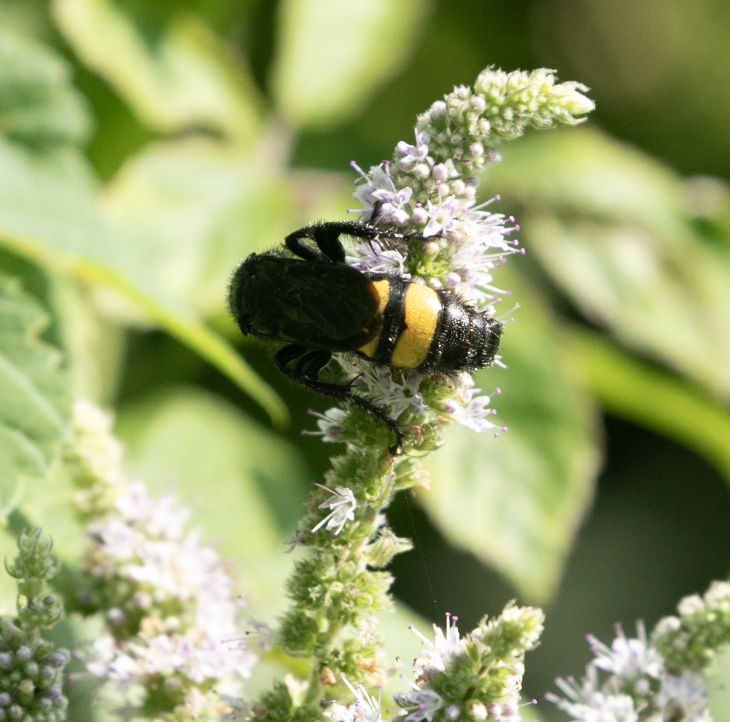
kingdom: Animalia
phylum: Arthropoda
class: Insecta
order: Hymenoptera
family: Scoliidae
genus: Scolia
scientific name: Scolia hirta
